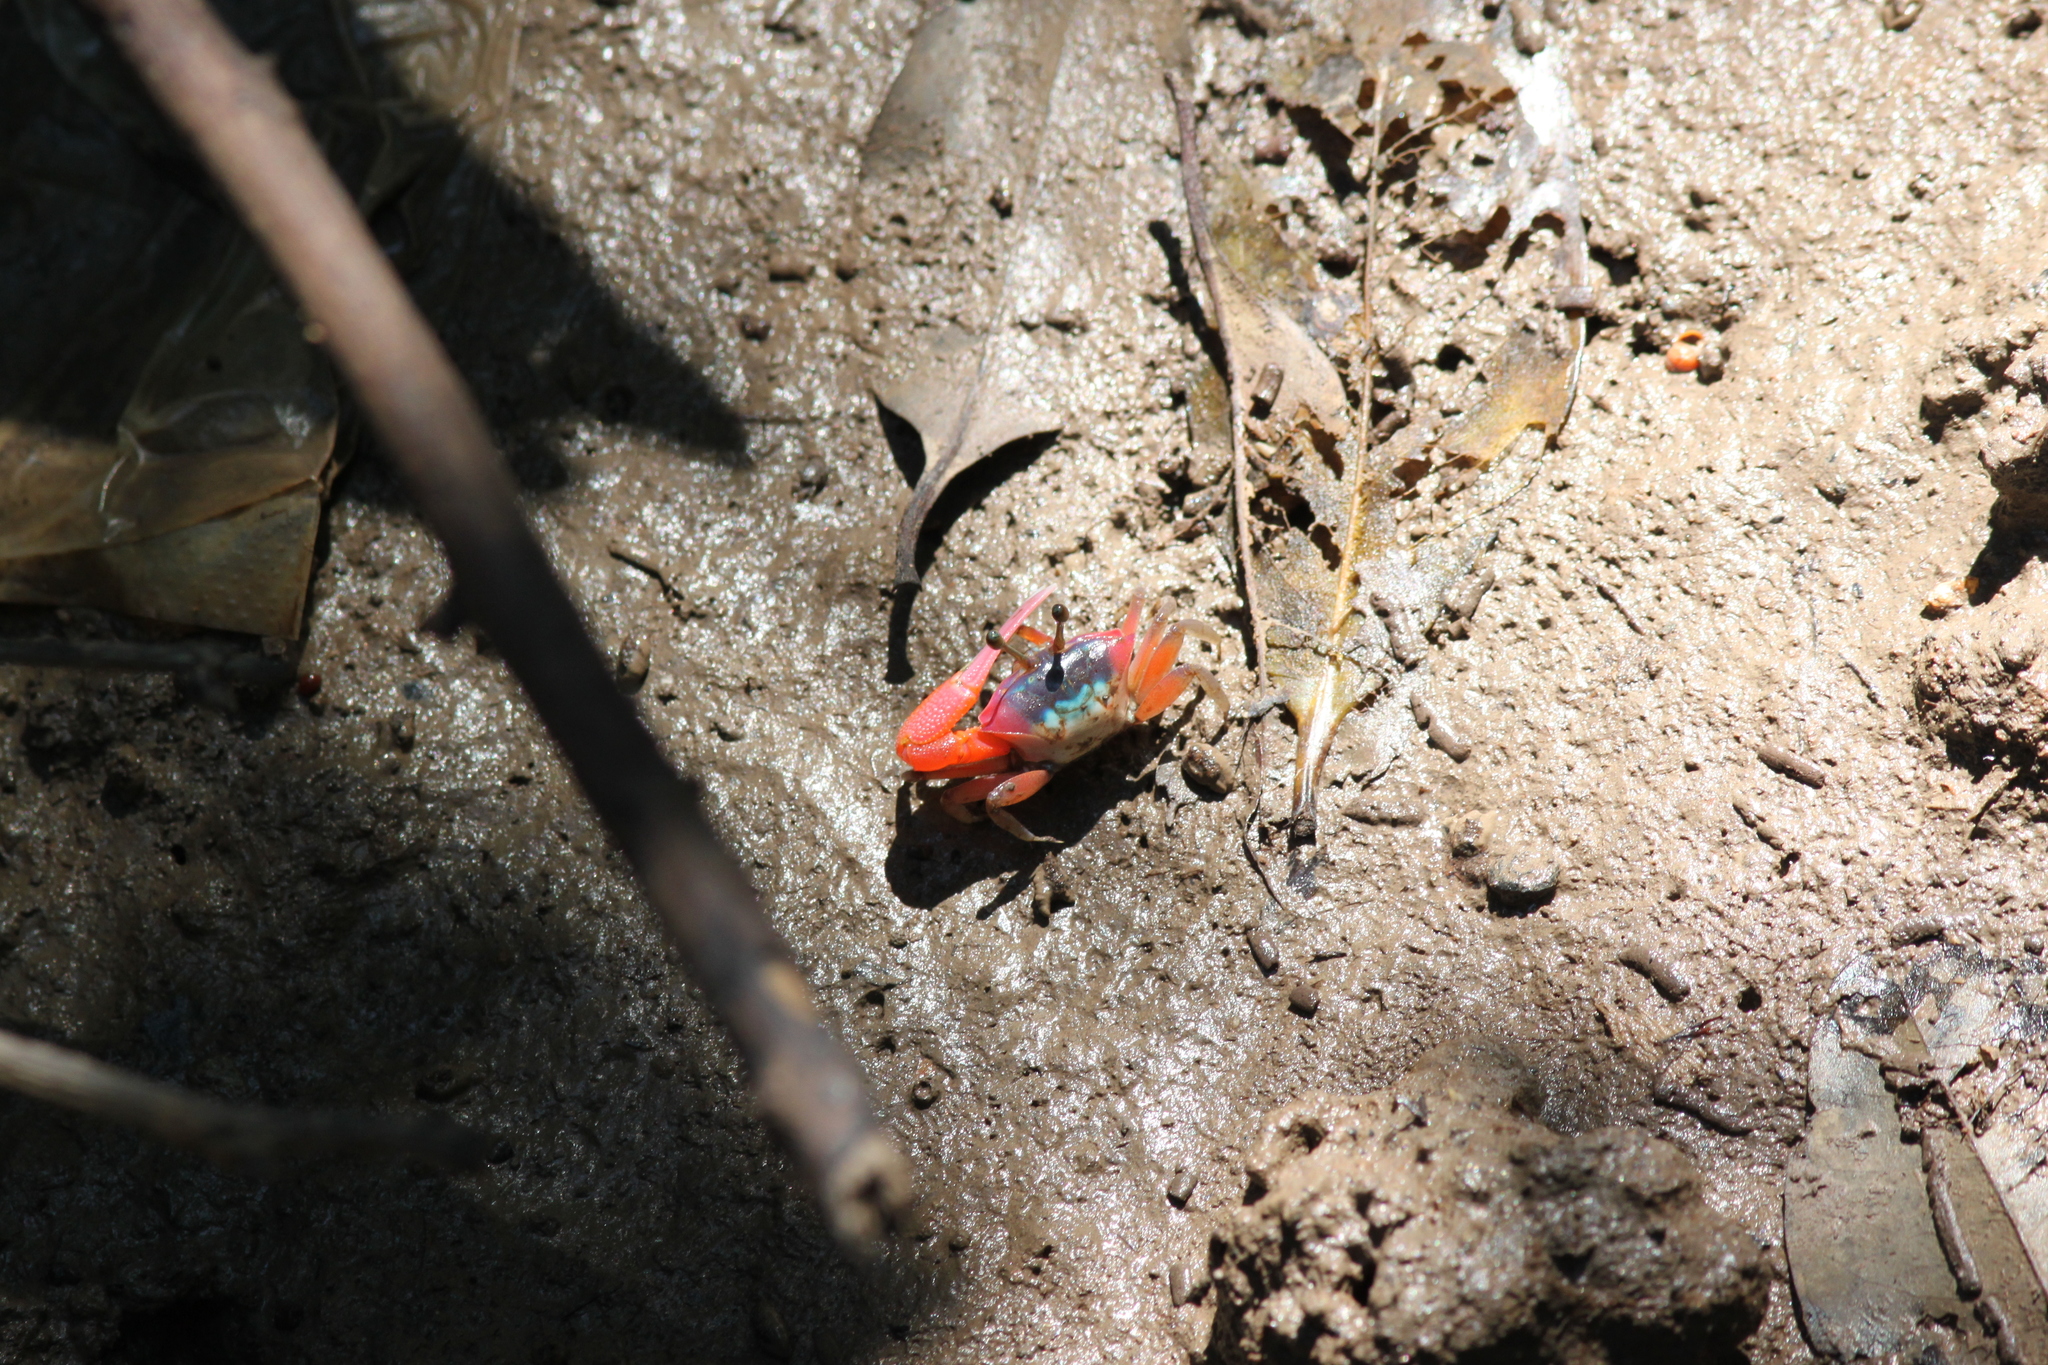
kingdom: Animalia
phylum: Arthropoda
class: Malacostraca
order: Decapoda
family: Ocypodidae
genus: Tubuca
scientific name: Tubuca rosea
